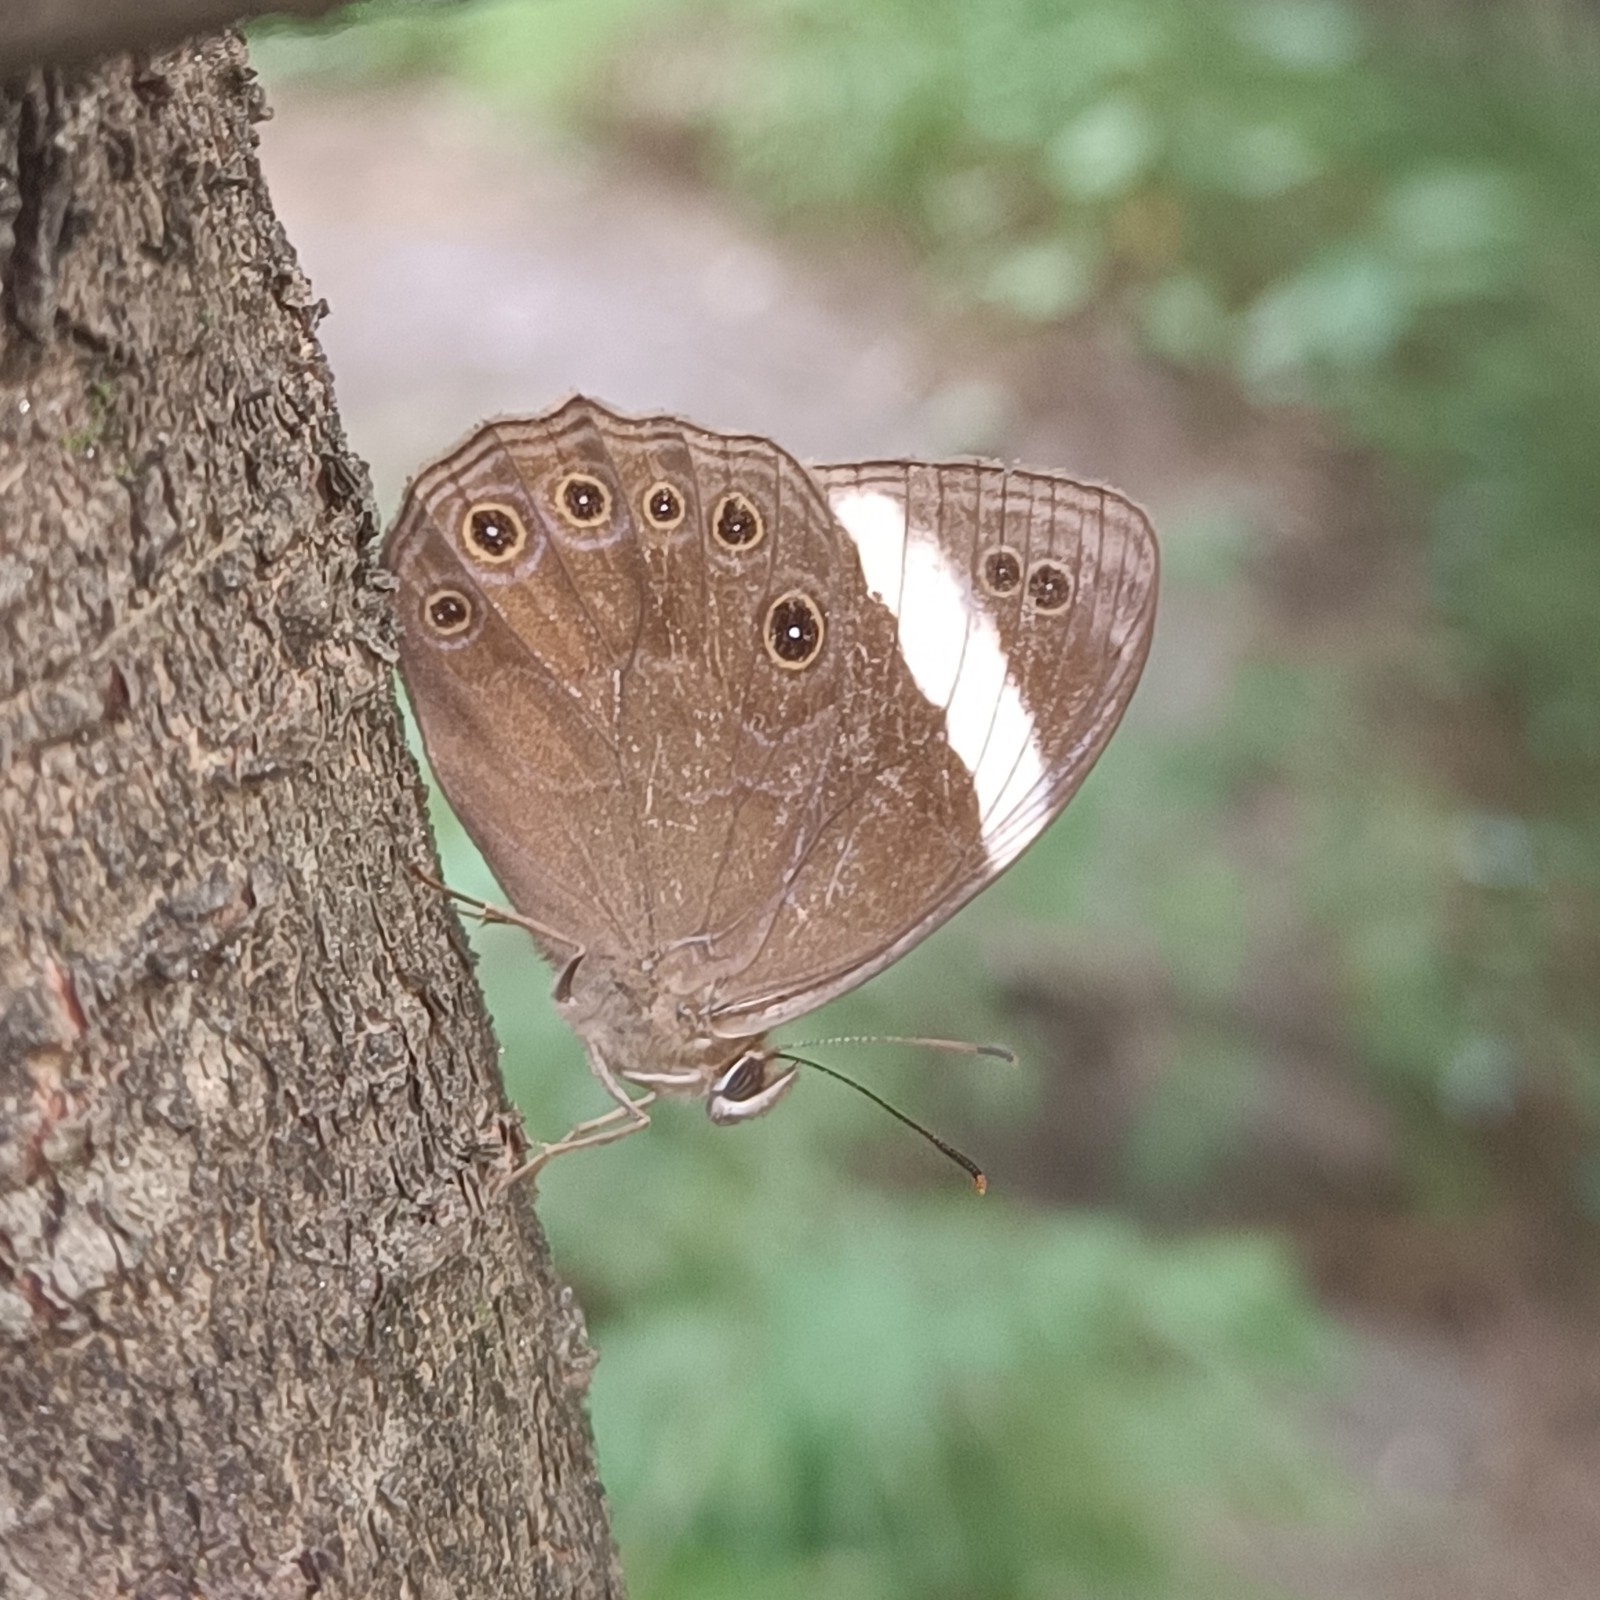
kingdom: Animalia
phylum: Arthropoda
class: Insecta
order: Lepidoptera
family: Nymphalidae
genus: Lethe
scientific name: Lethe verma
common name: Straight-banded treebrown
